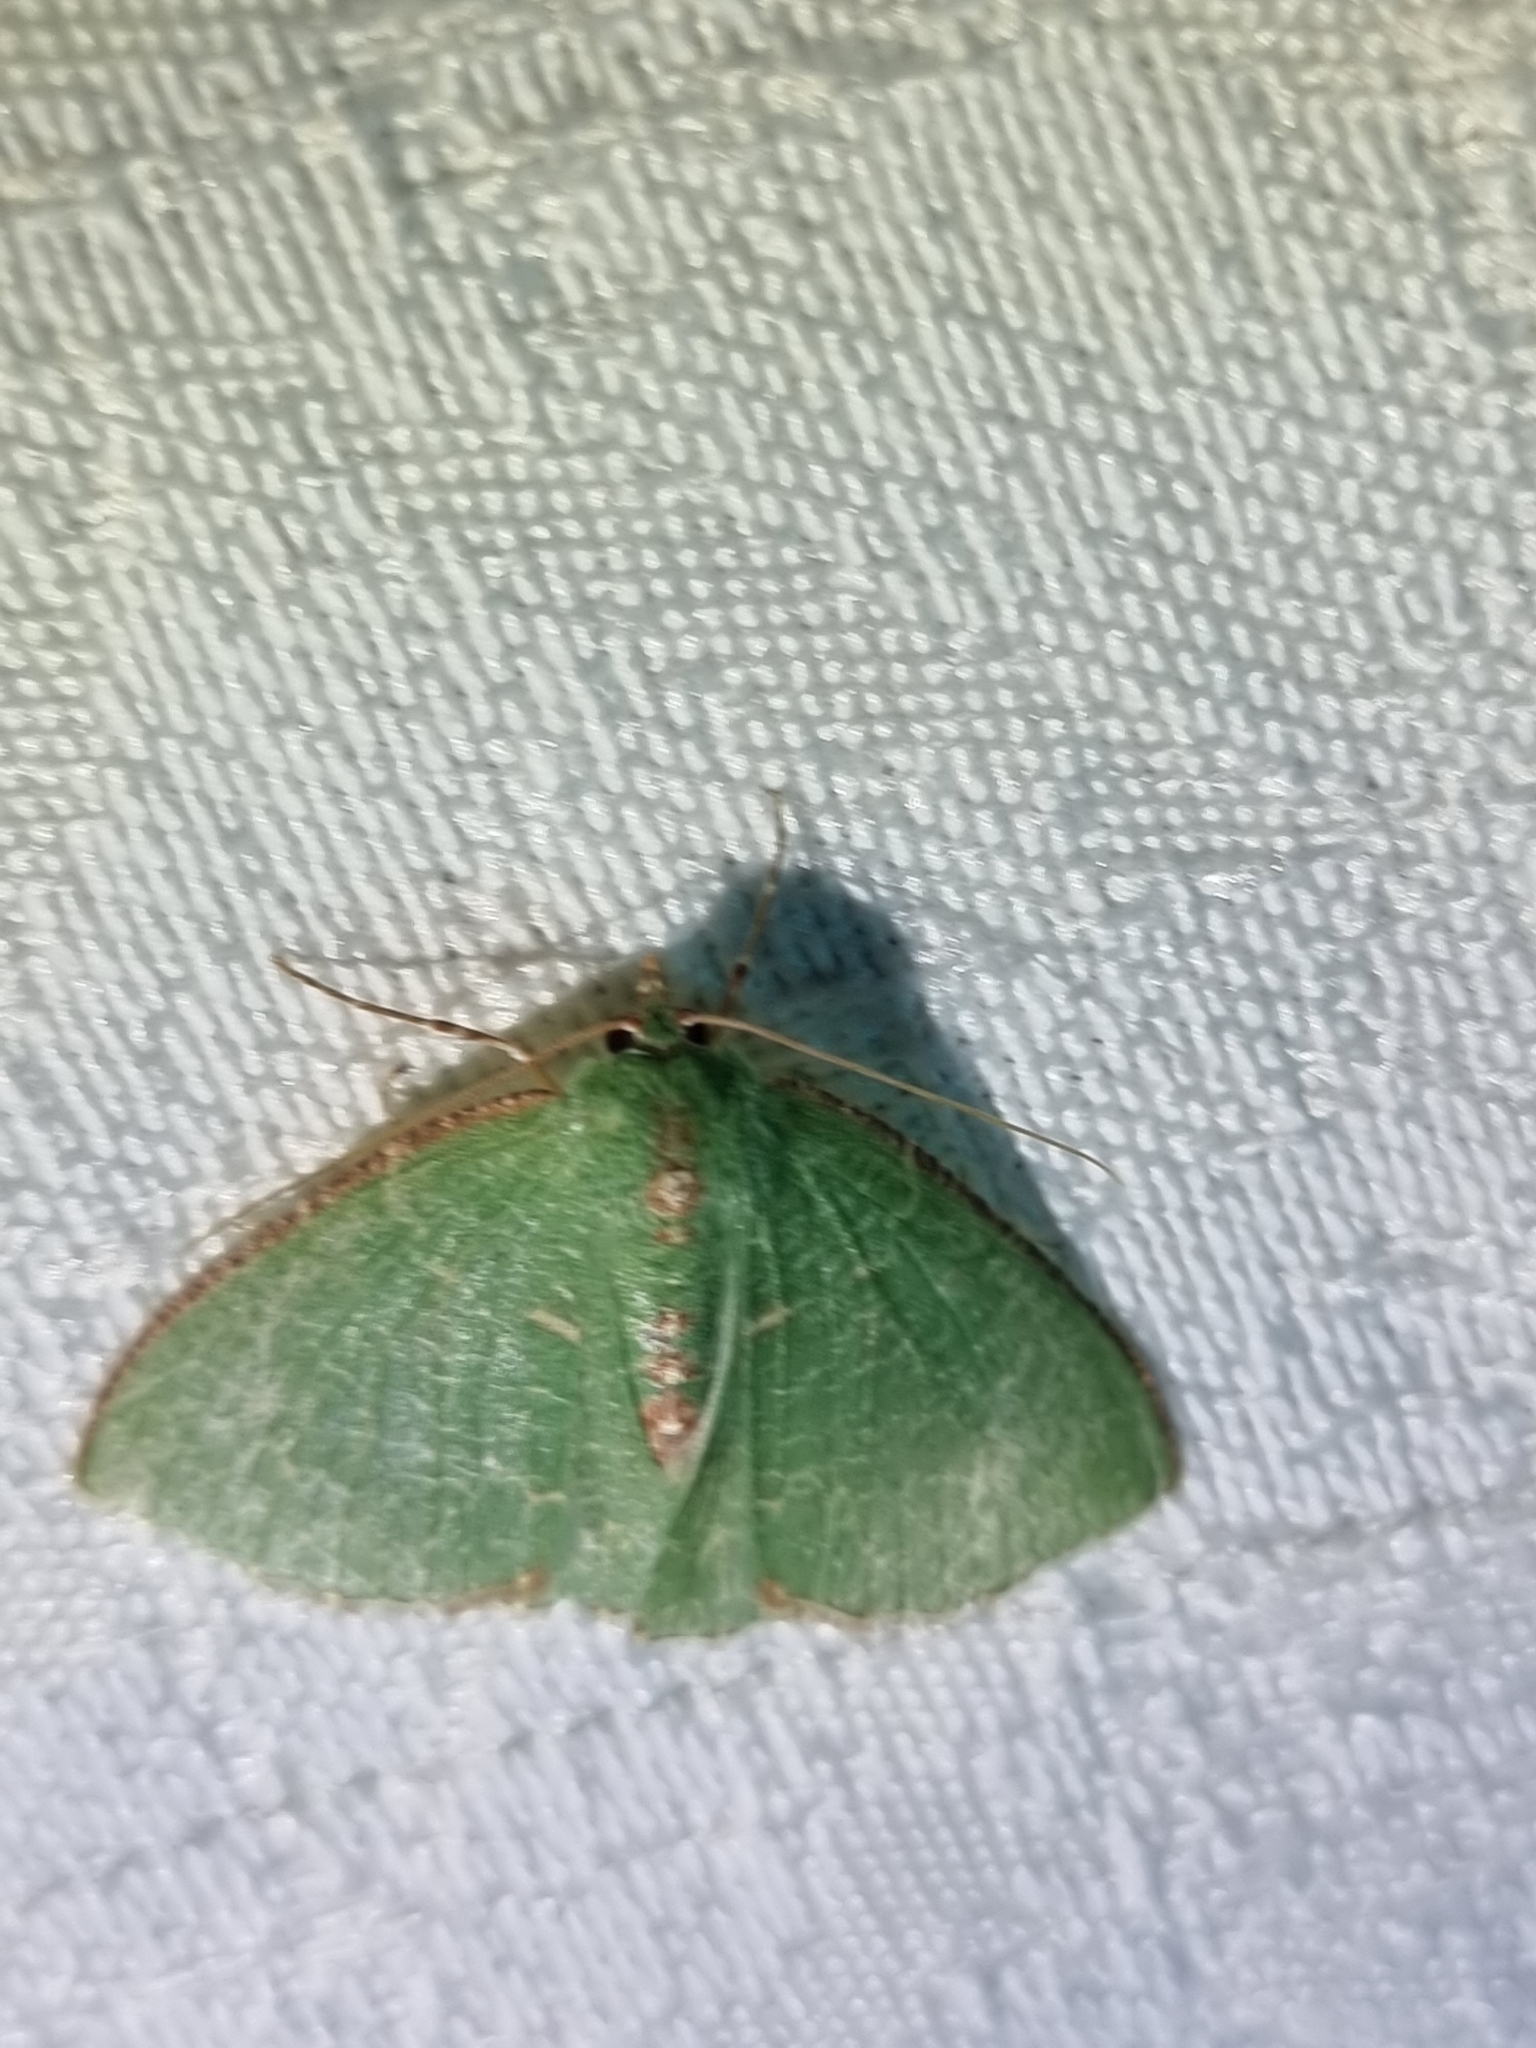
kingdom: Animalia
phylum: Arthropoda
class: Insecta
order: Lepidoptera
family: Geometridae
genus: Eucyclodes
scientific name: Eucyclodes metaspila
